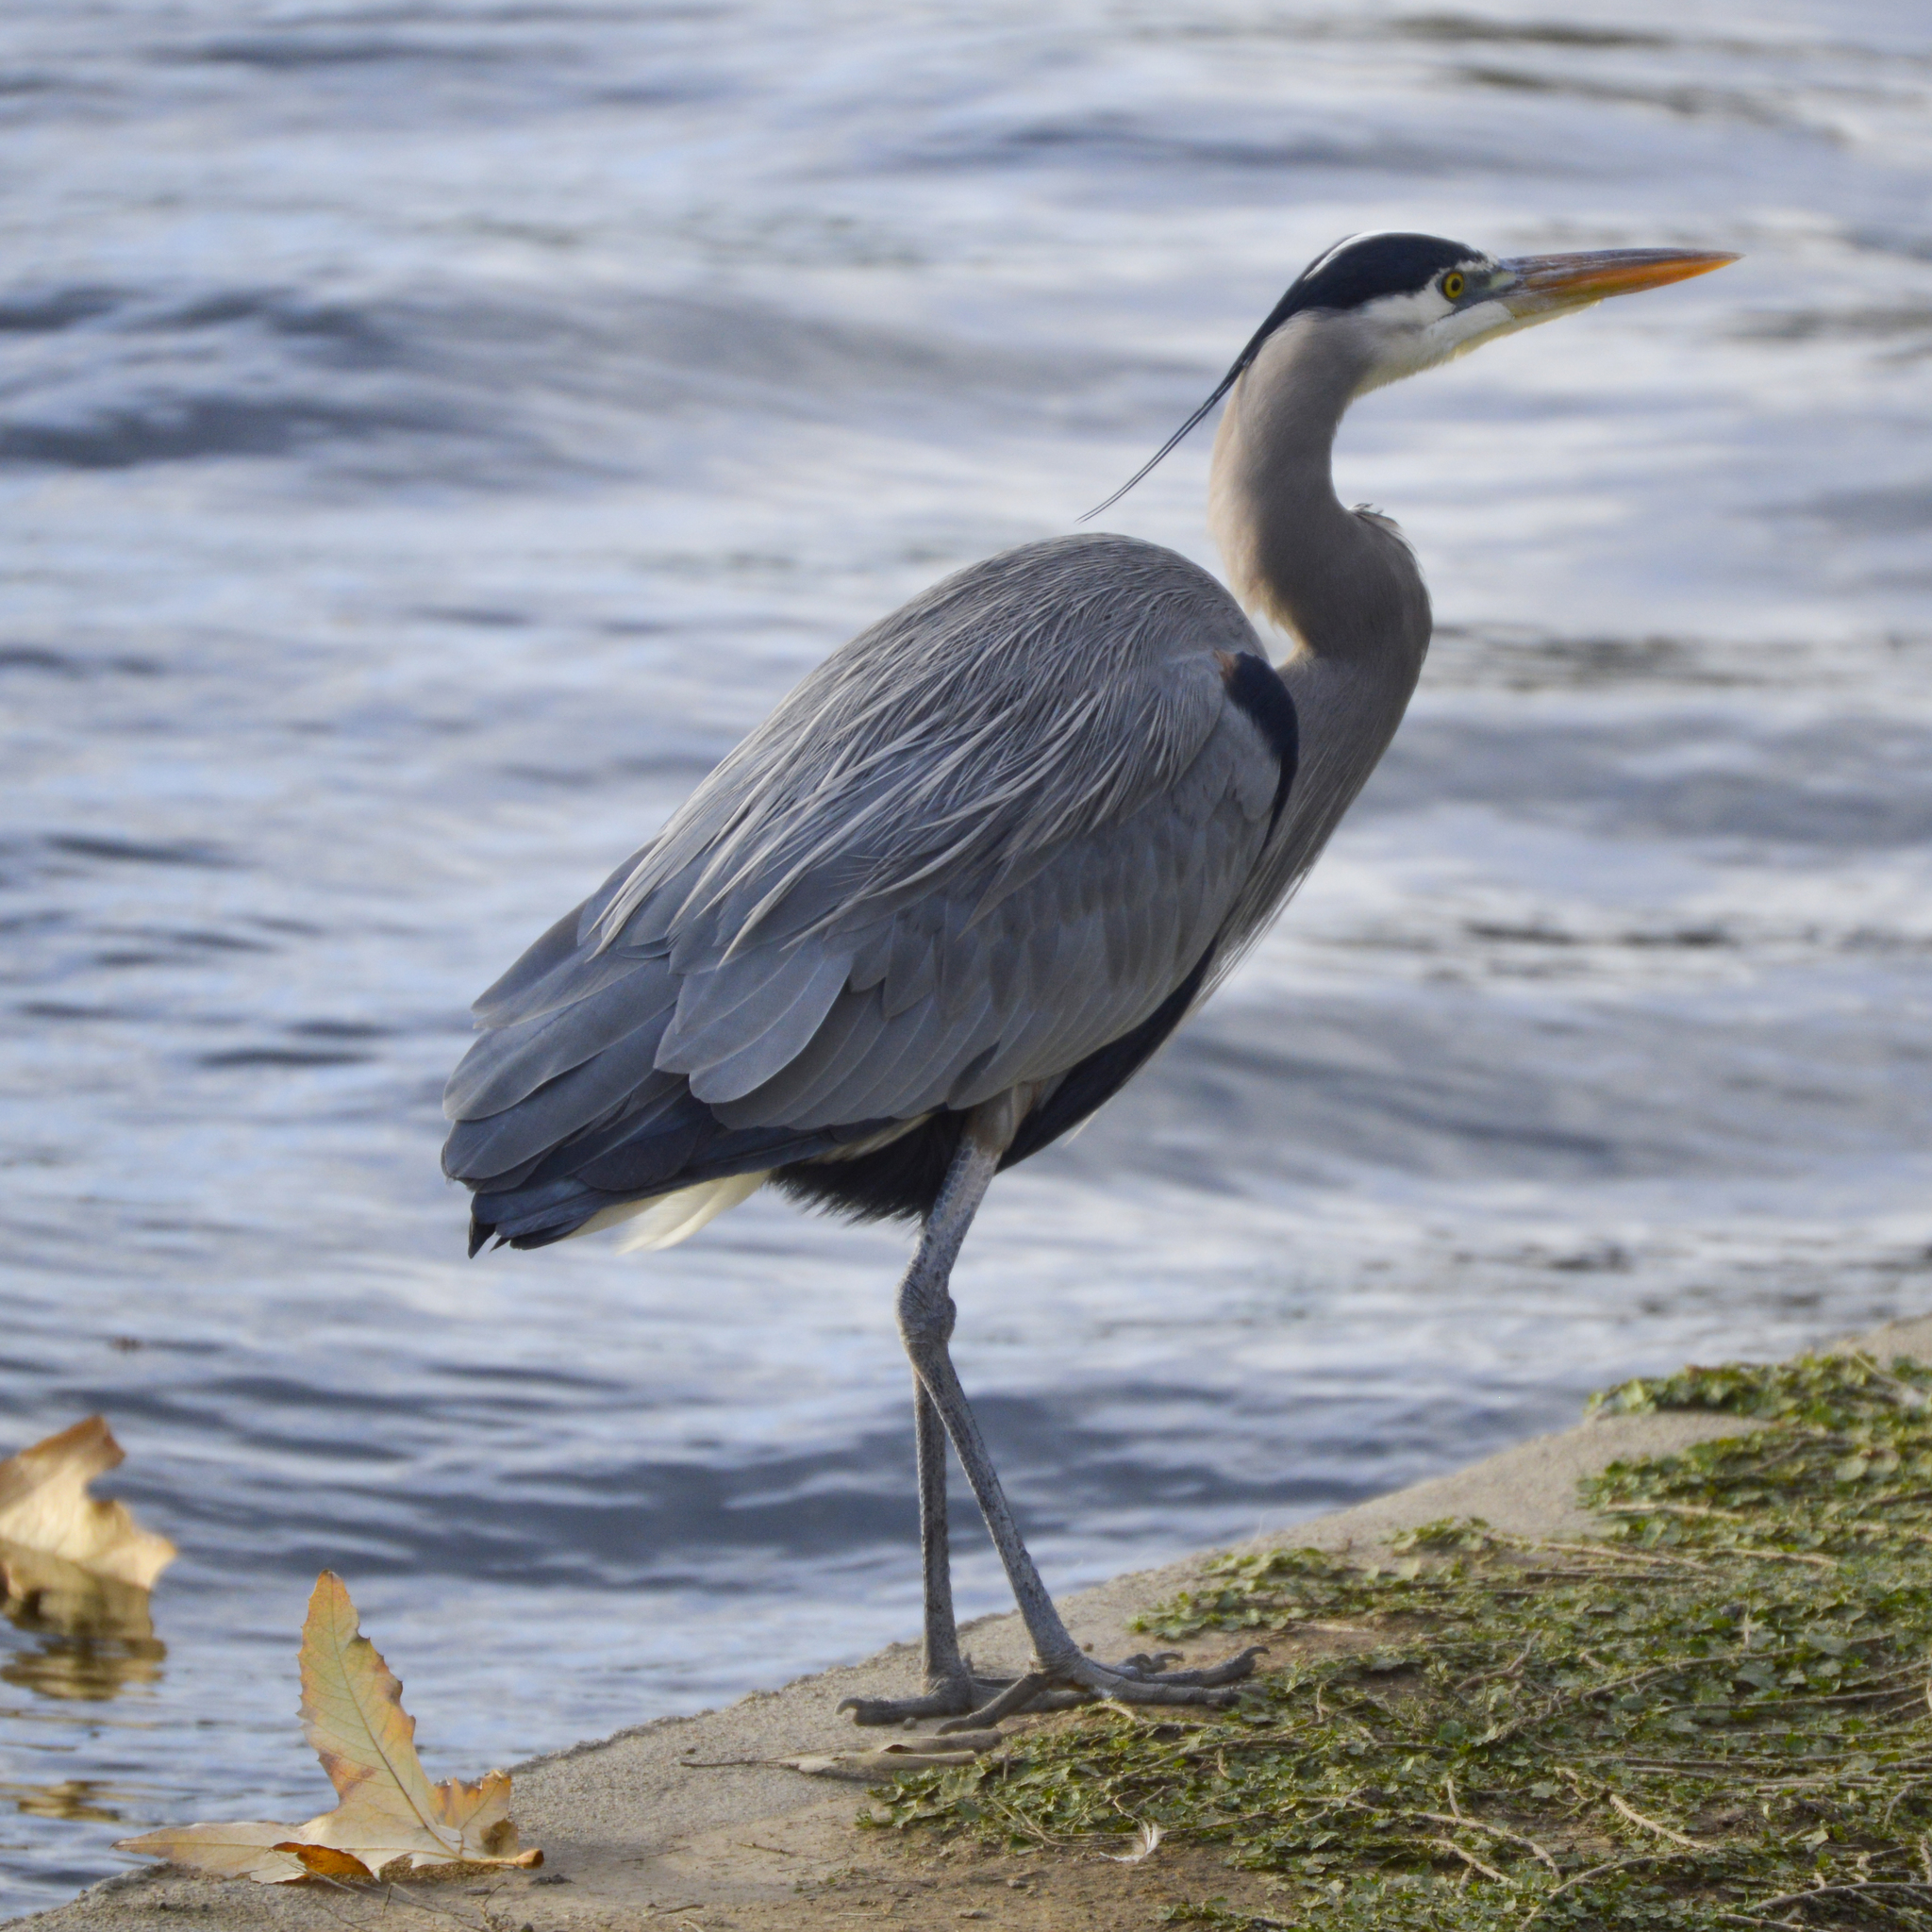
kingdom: Animalia
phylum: Chordata
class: Aves
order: Pelecaniformes
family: Ardeidae
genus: Ardea
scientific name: Ardea herodias
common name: Great blue heron
